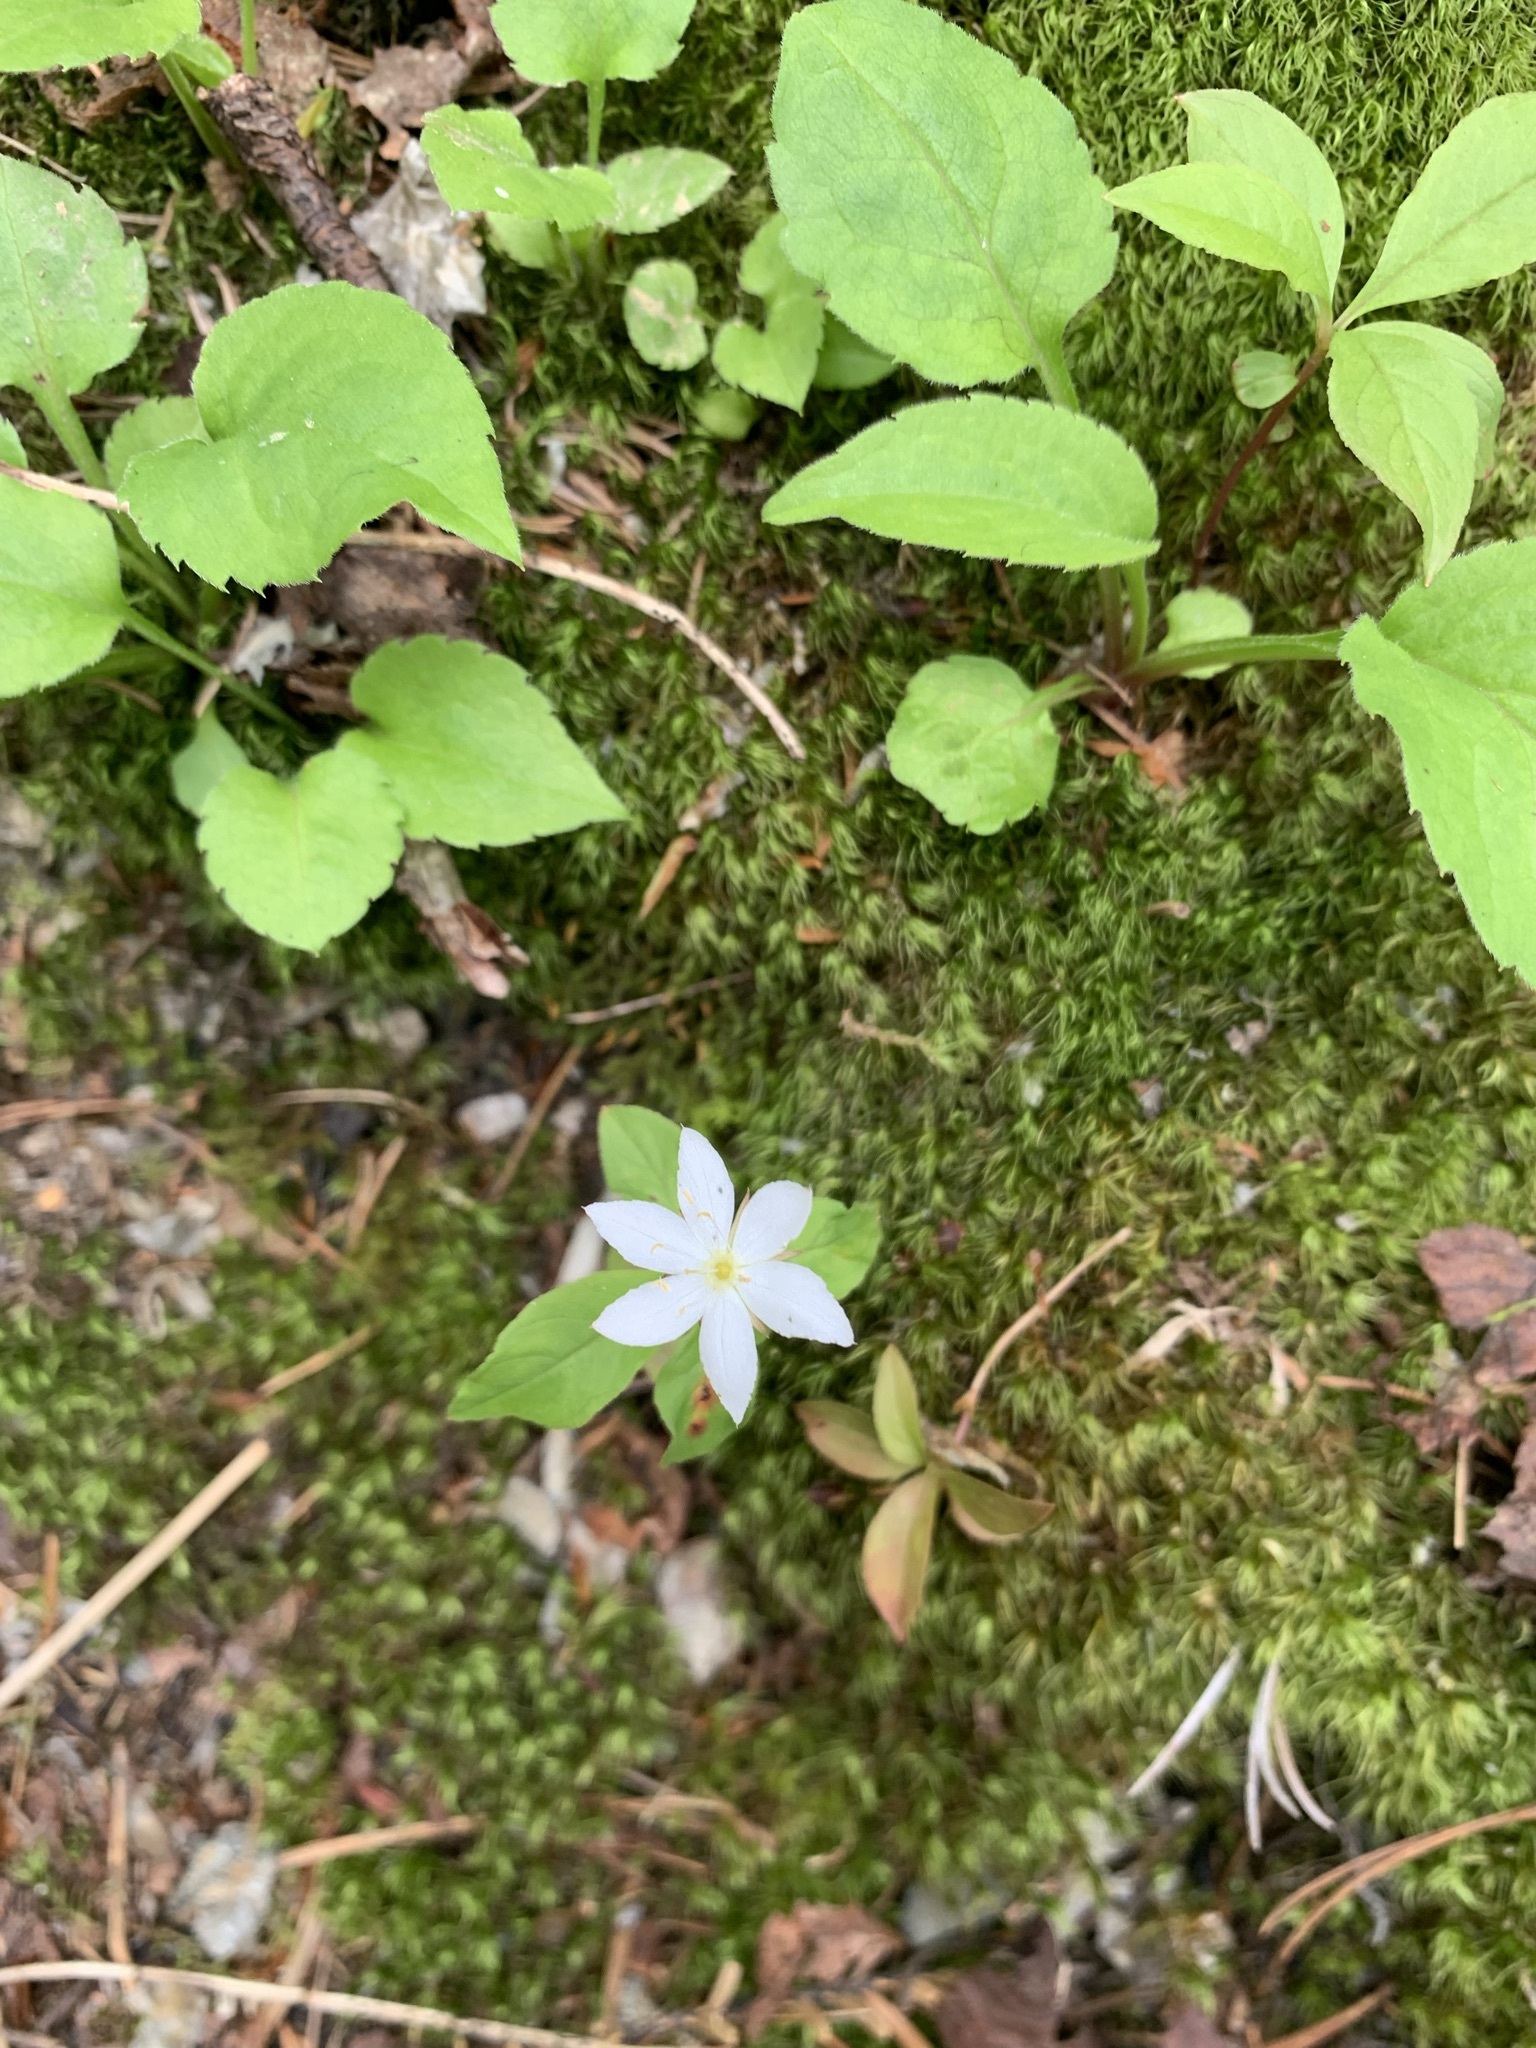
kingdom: Plantae
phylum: Tracheophyta
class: Magnoliopsida
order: Ericales
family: Primulaceae
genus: Lysimachia
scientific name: Lysimachia europaea
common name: Arctic starflower
